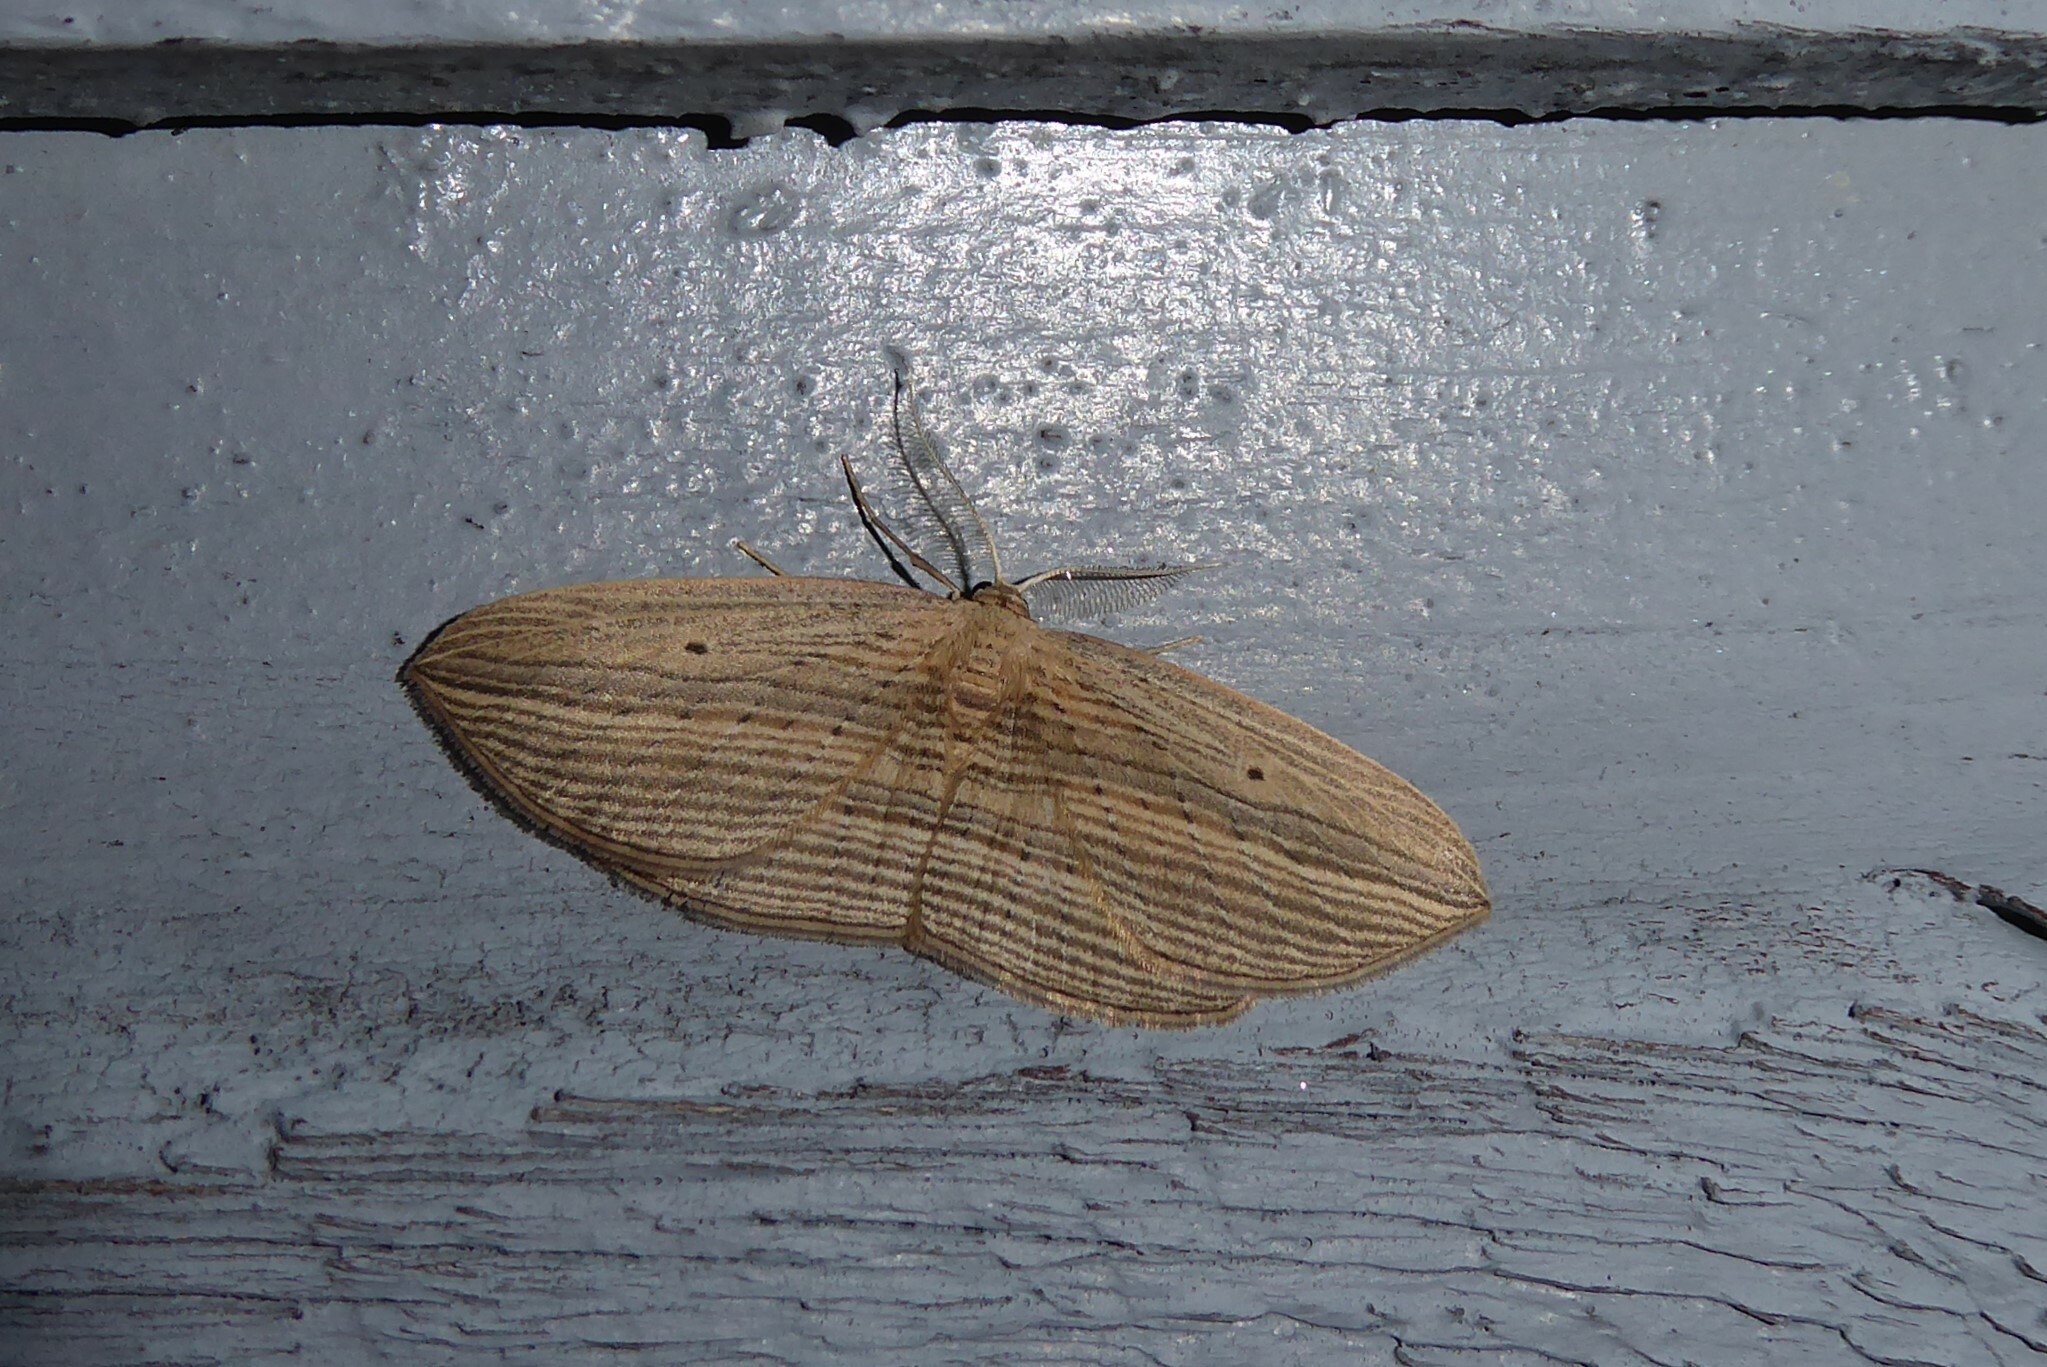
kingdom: Animalia
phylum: Arthropoda
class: Insecta
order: Lepidoptera
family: Geometridae
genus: Epiphryne
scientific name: Epiphryne verriculata
